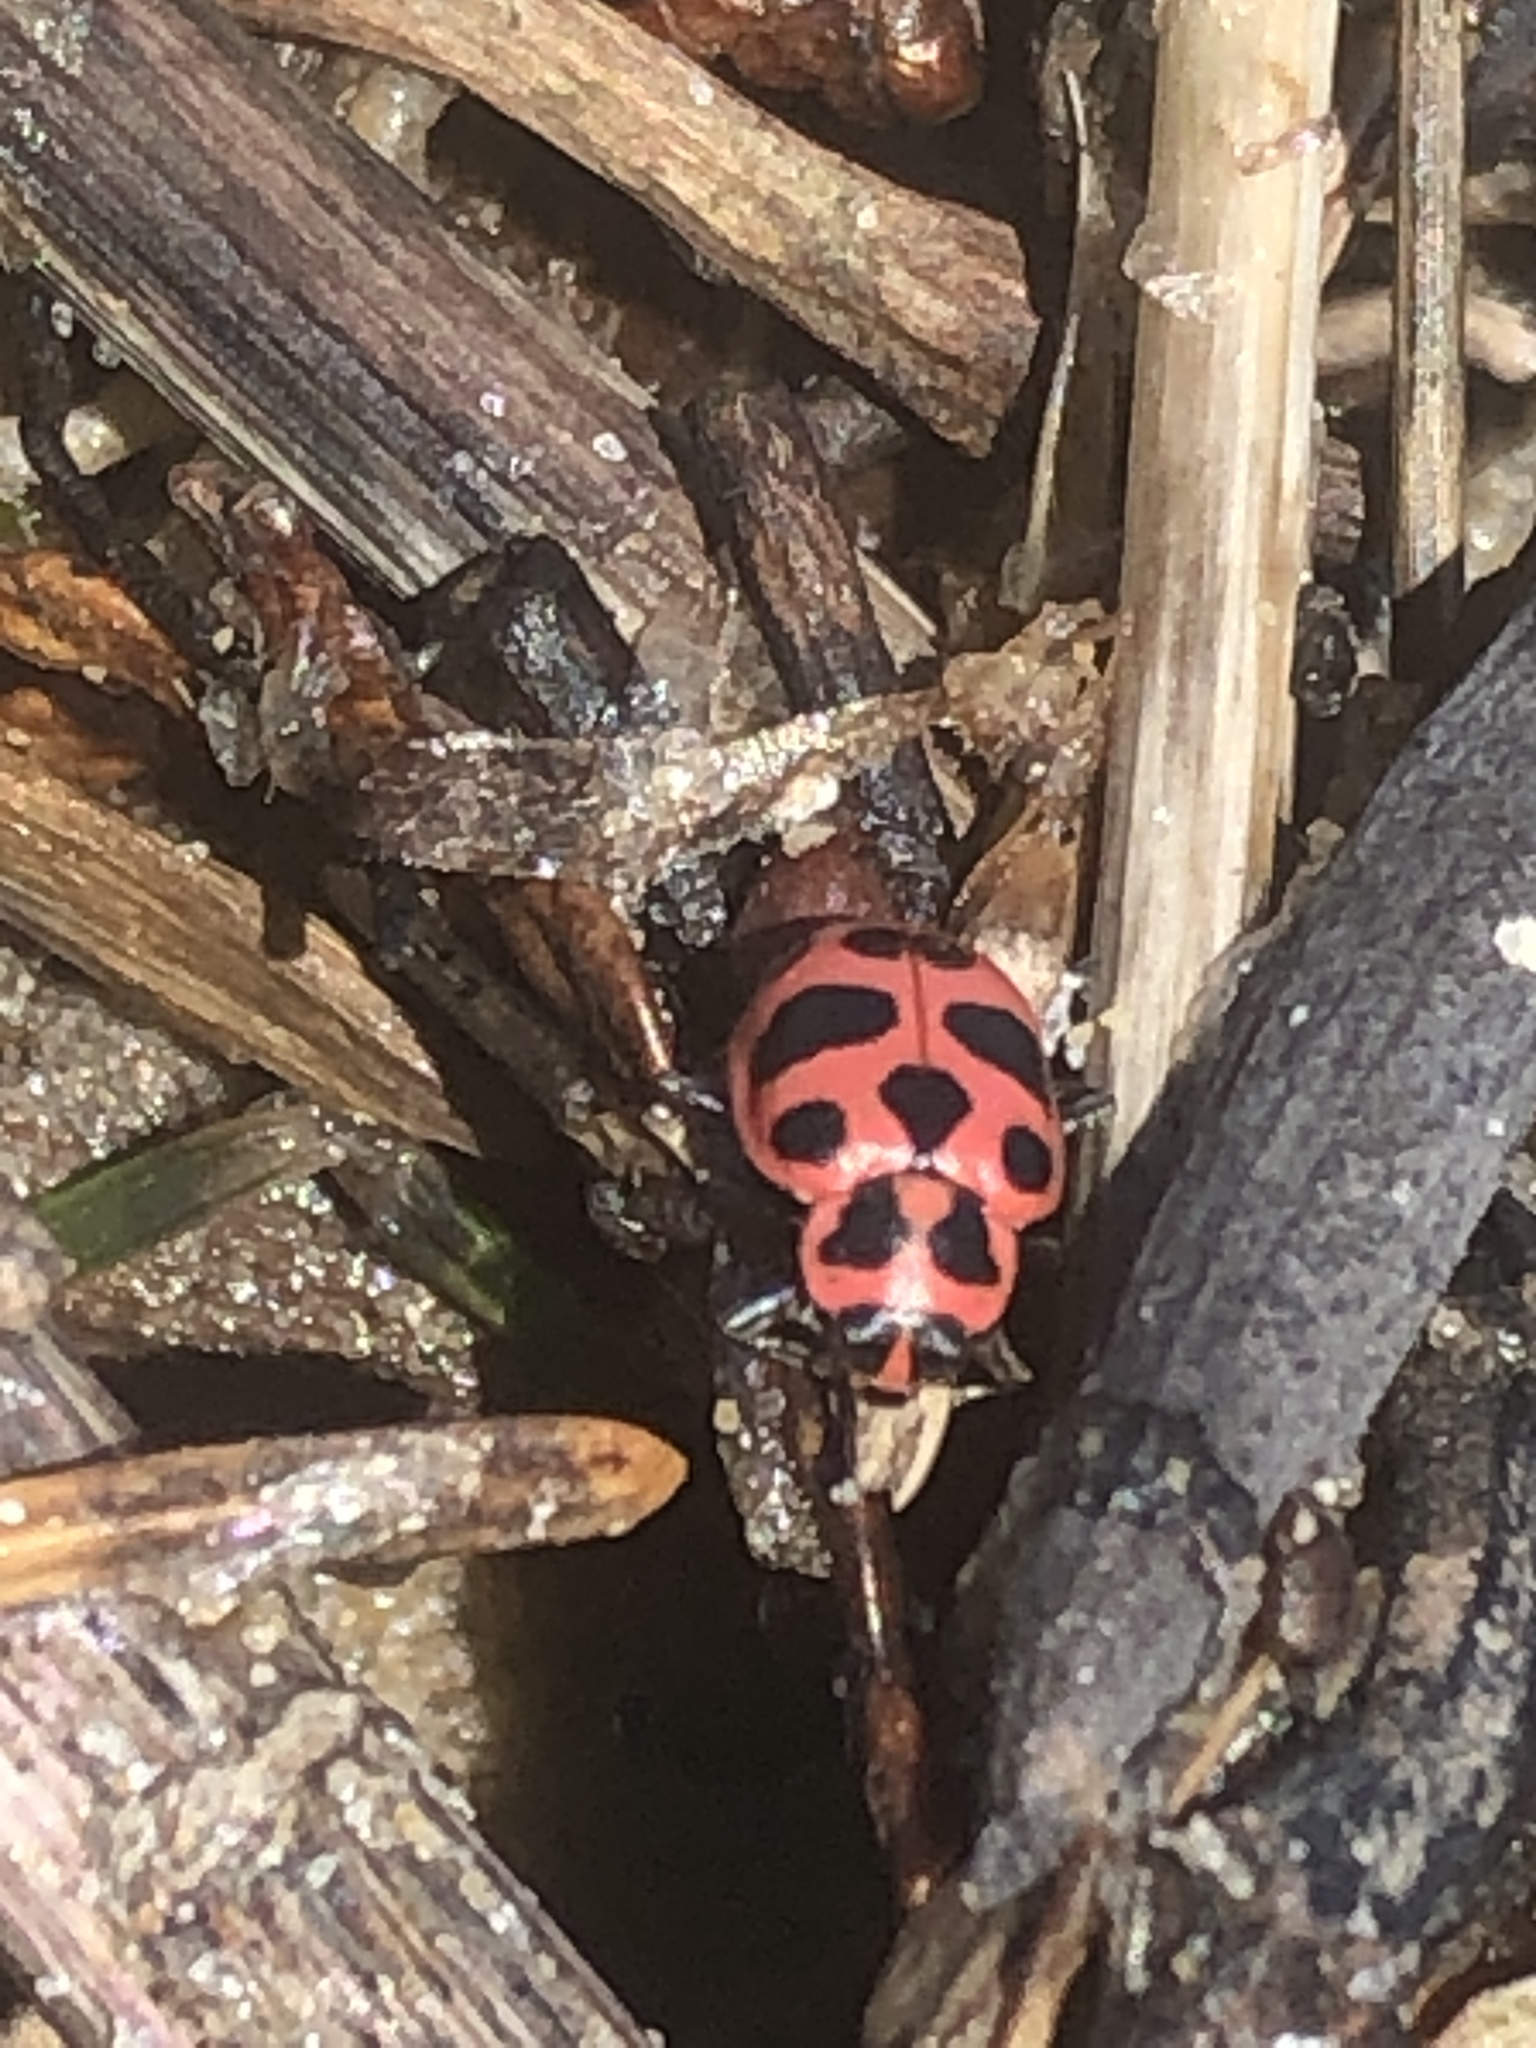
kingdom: Animalia
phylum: Arthropoda
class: Insecta
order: Coleoptera
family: Coccinellidae
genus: Coleomegilla
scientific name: Coleomegilla maculata
